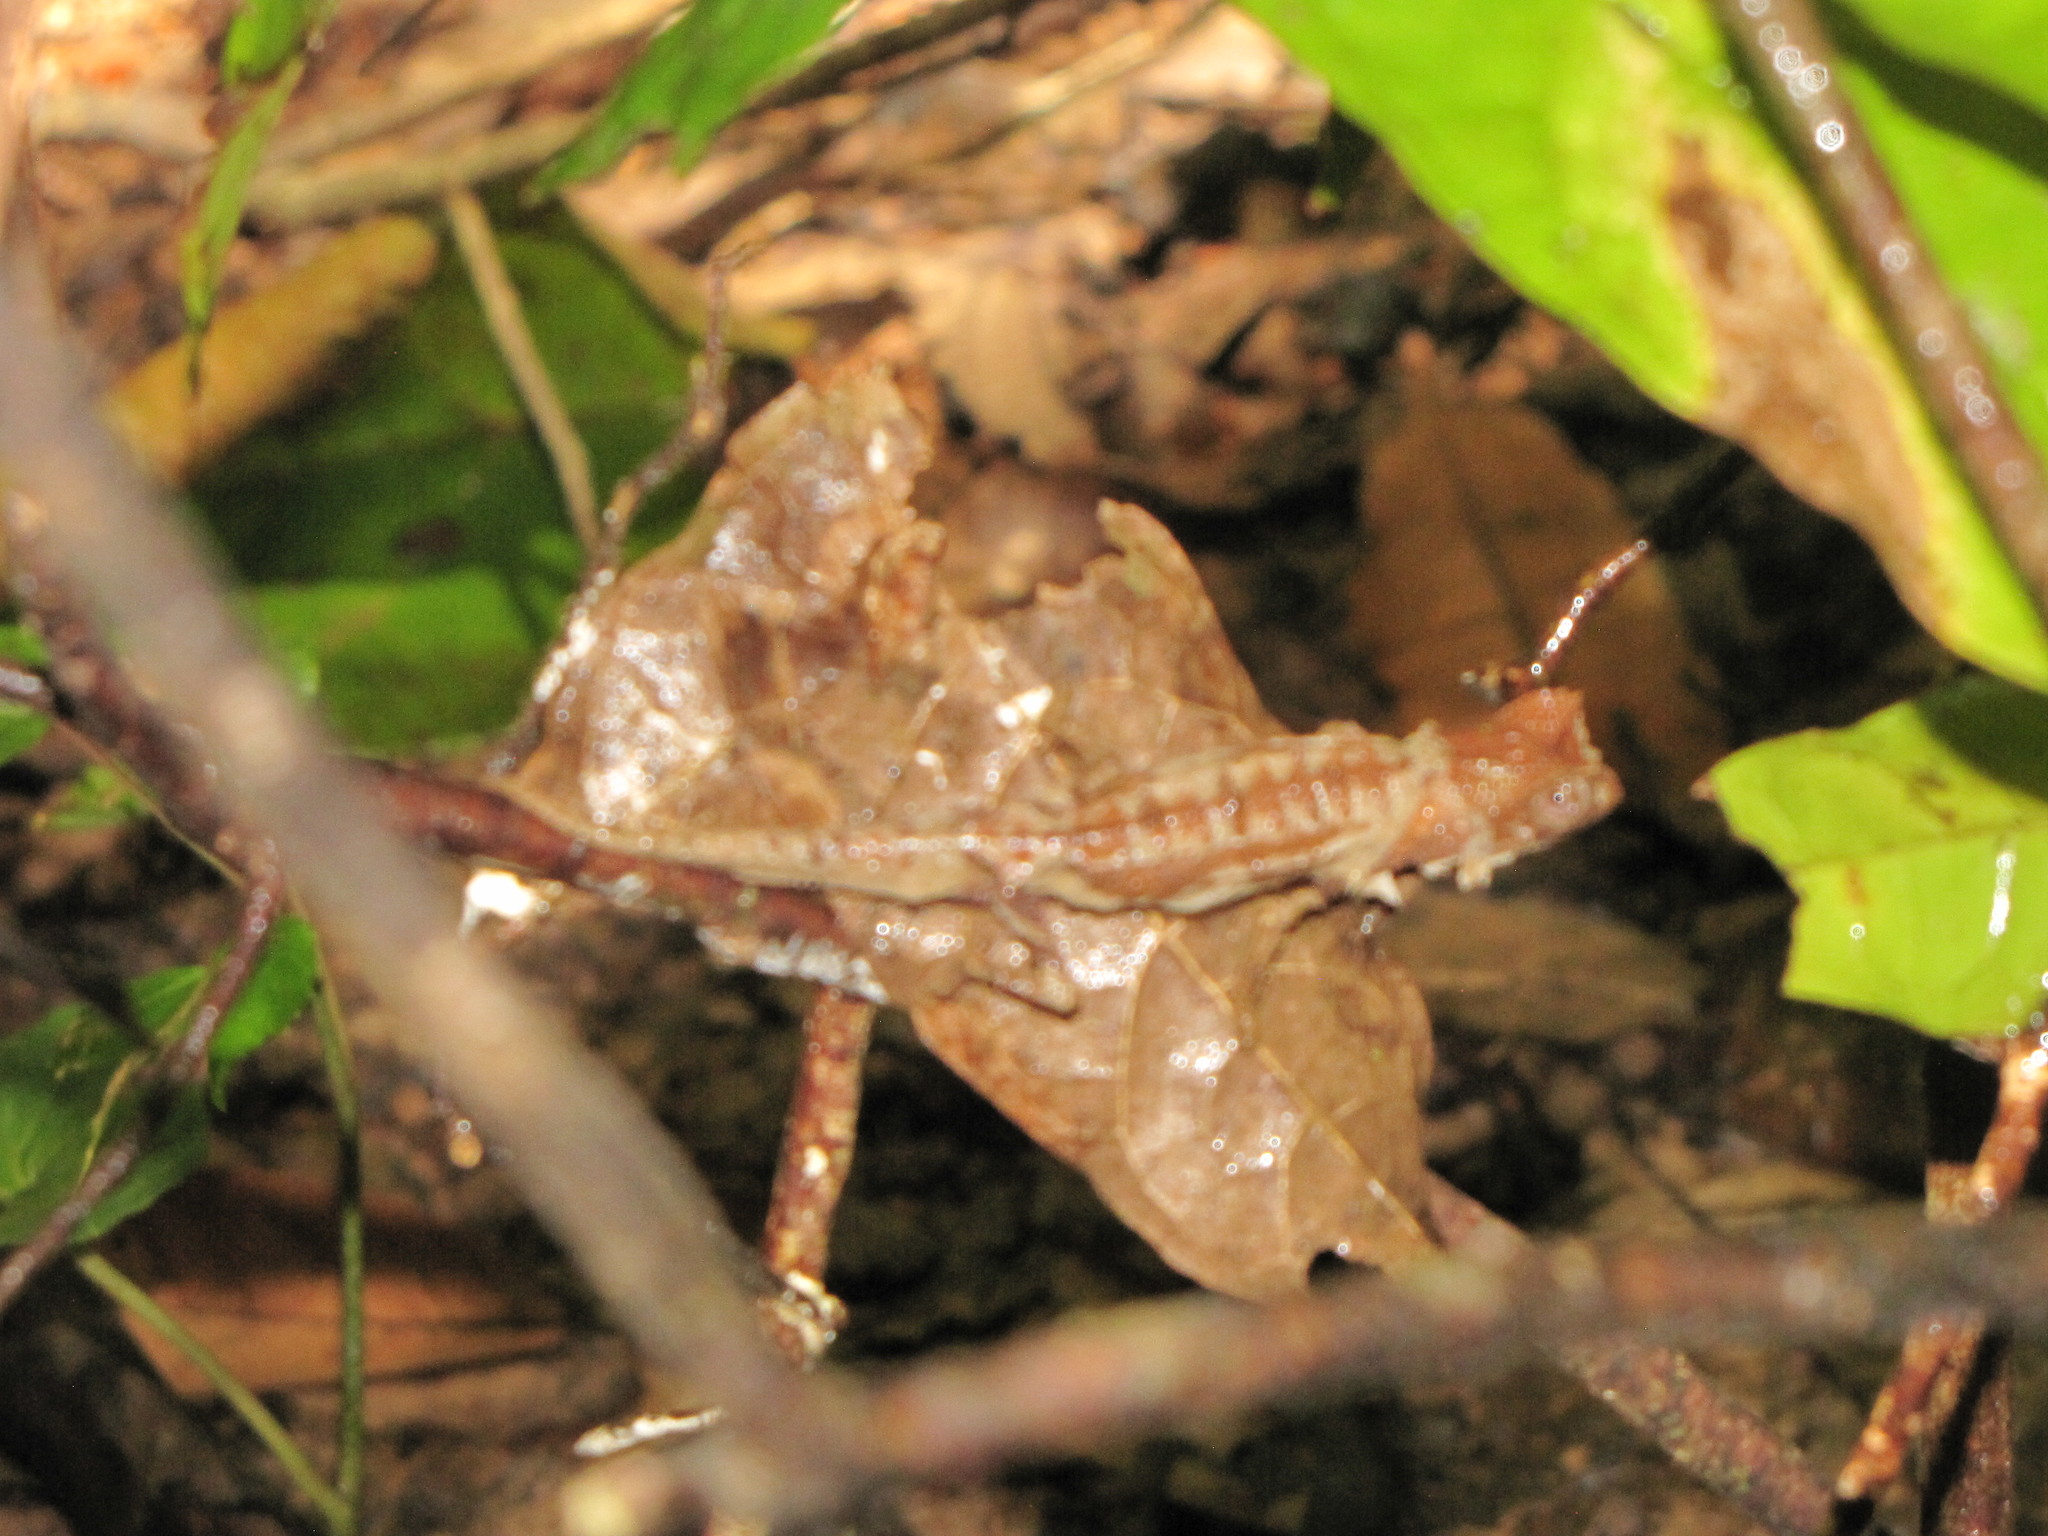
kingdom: Animalia
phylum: Chordata
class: Squamata
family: Chamaeleonidae
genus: Brookesia
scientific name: Brookesia stumpffi
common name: Plated leaf chameleon
